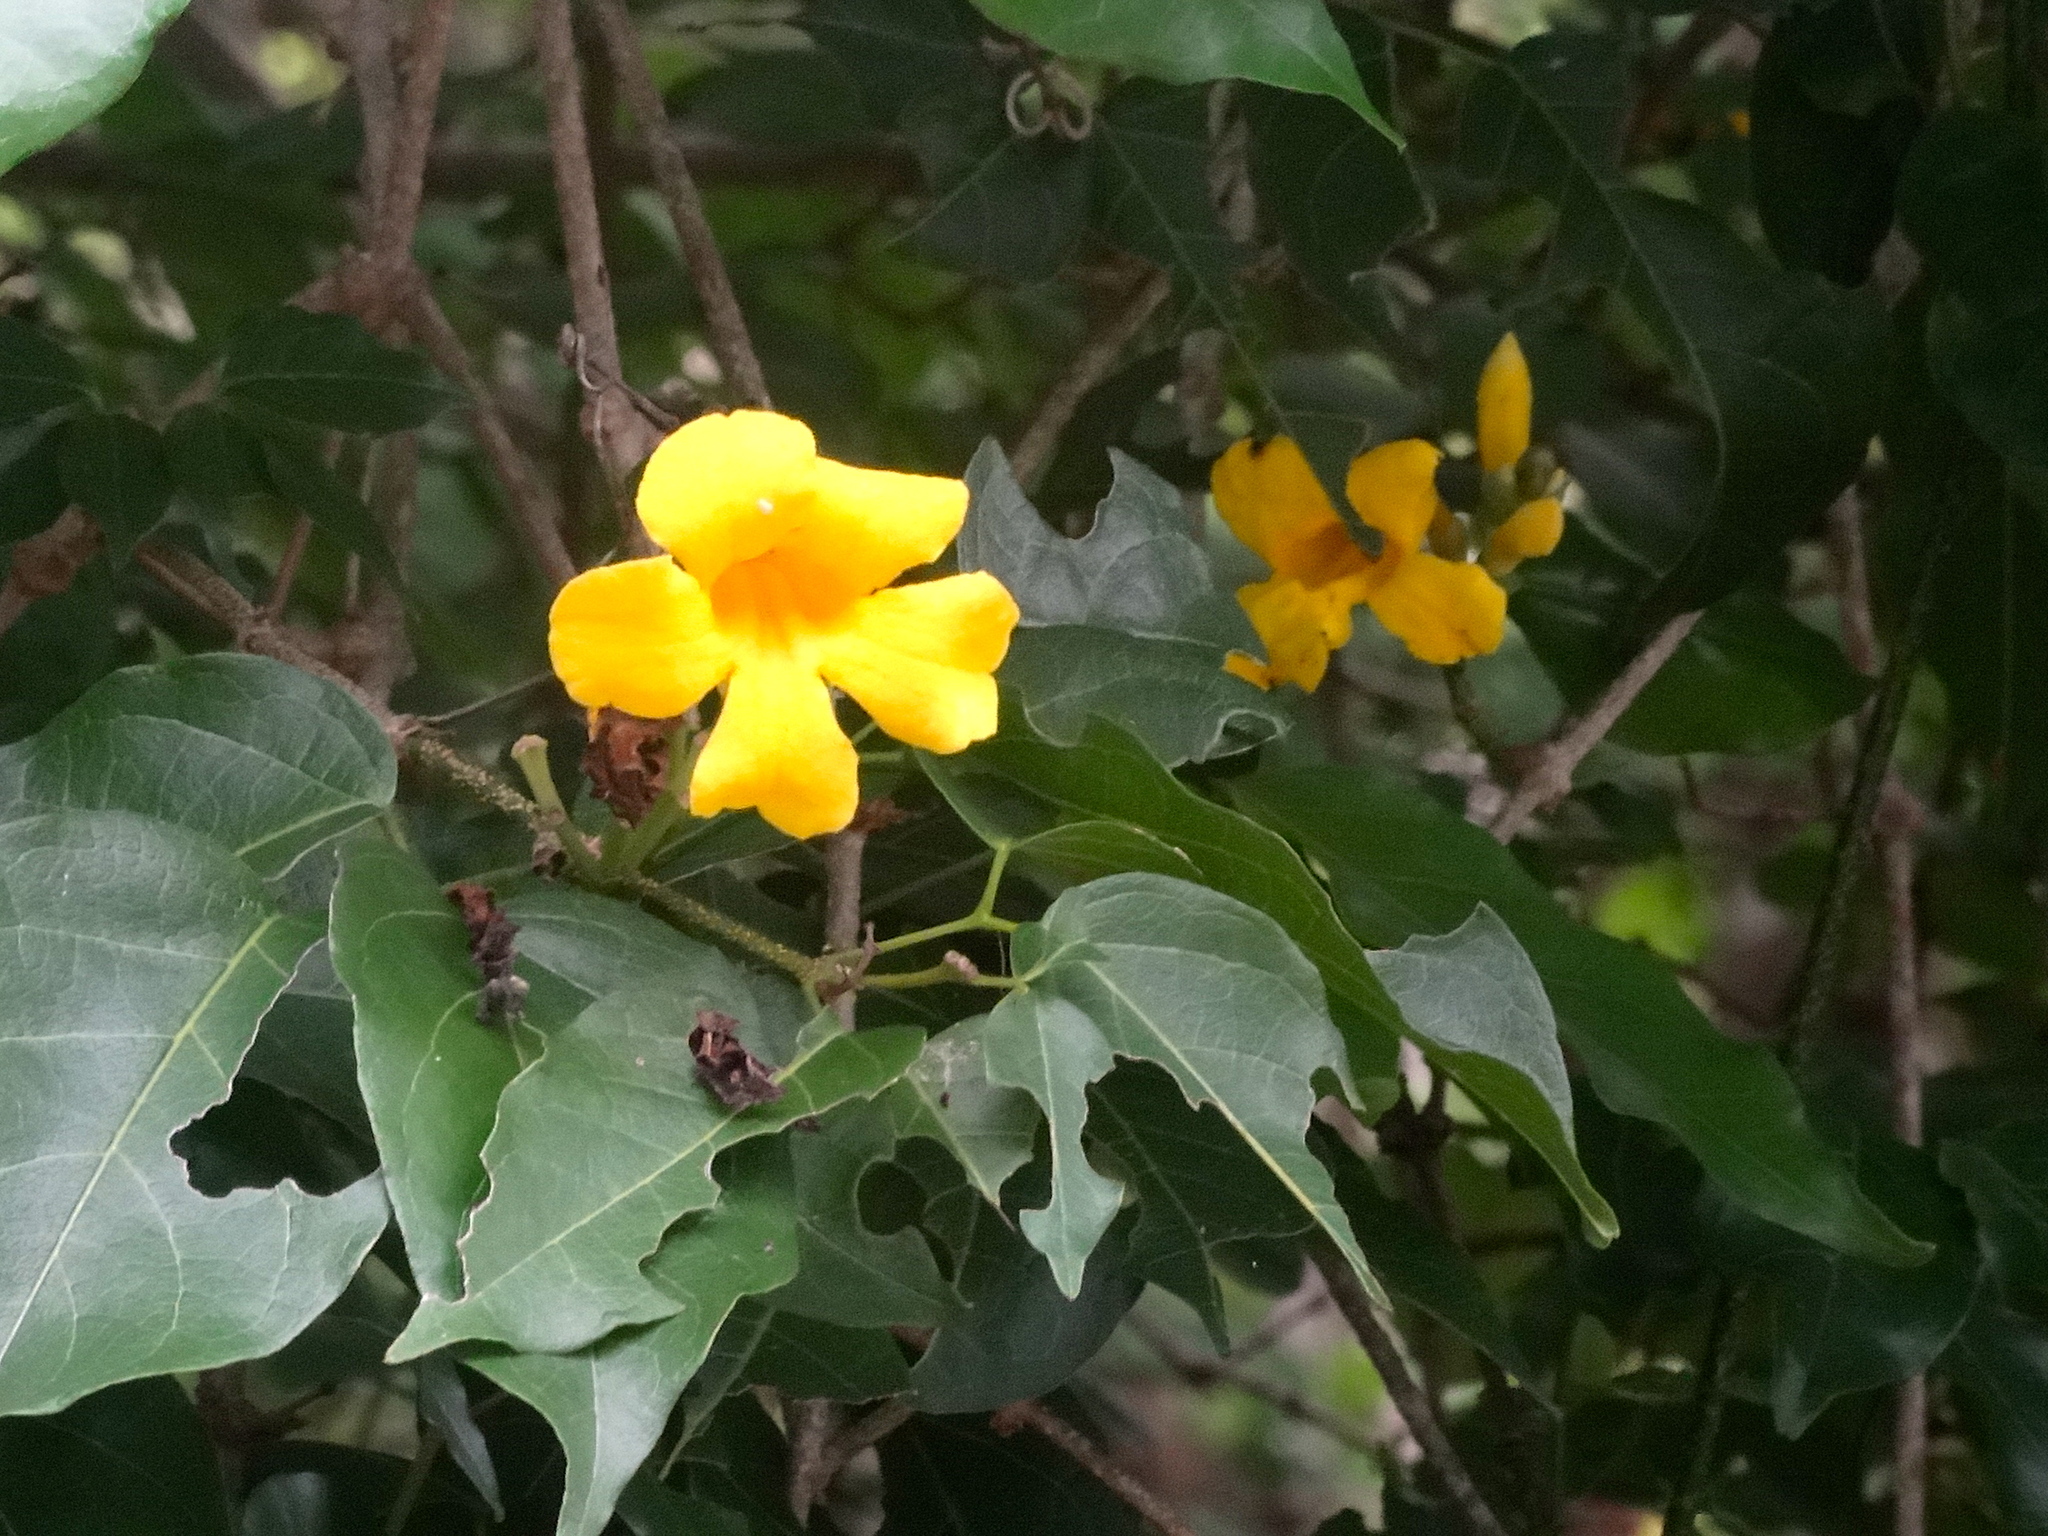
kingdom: Plantae
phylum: Tracheophyta
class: Magnoliopsida
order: Lamiales
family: Bignoniaceae
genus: Dolichandra
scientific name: Dolichandra
